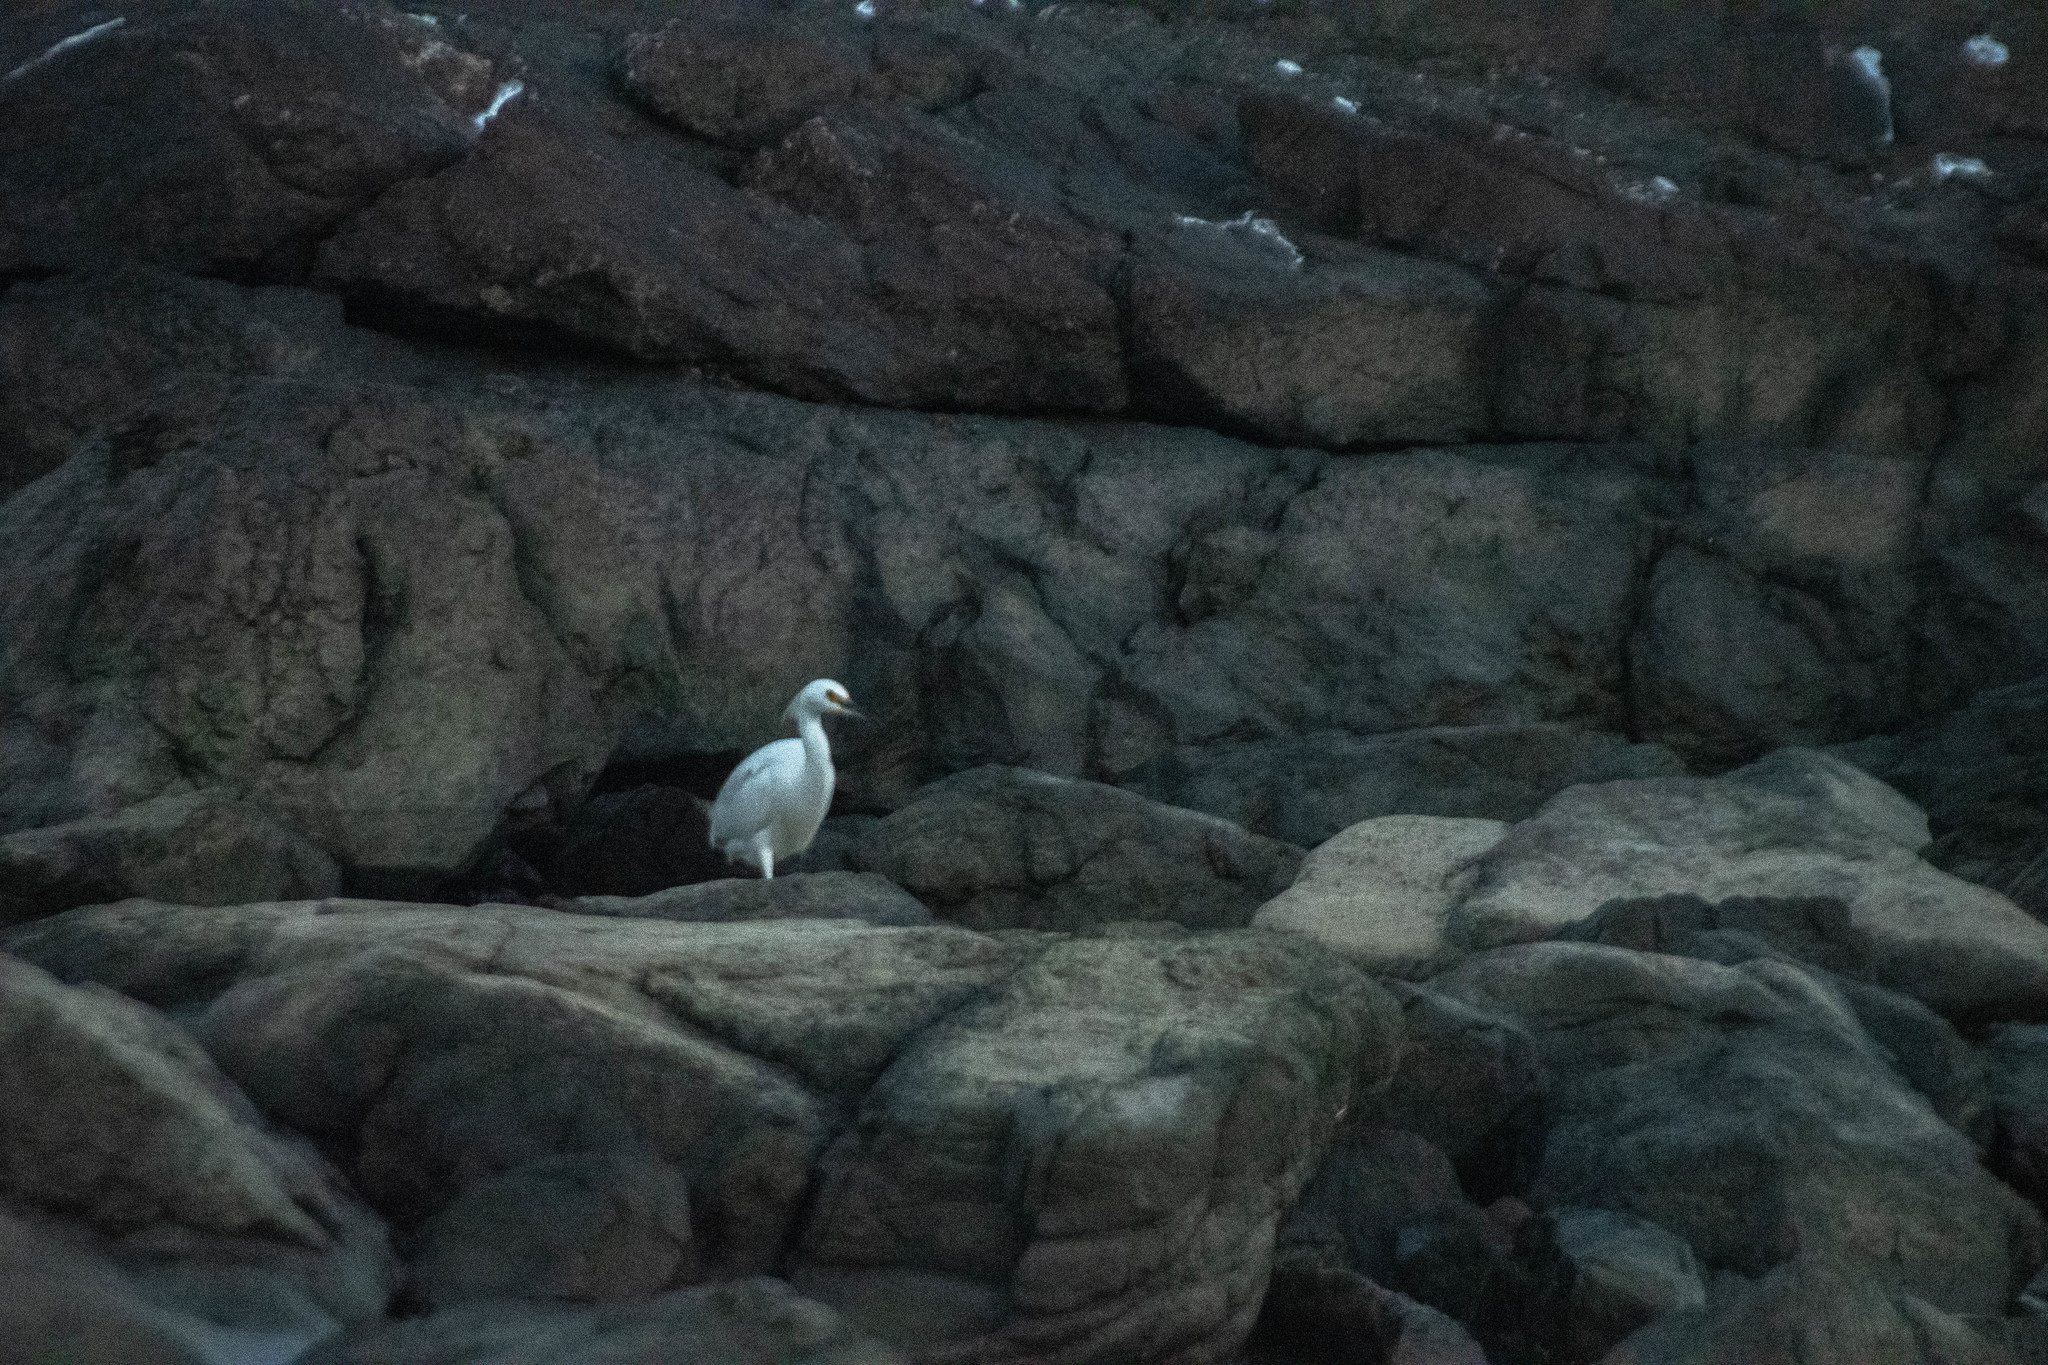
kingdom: Animalia
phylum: Chordata
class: Aves
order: Pelecaniformes
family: Ardeidae
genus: Egretta
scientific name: Egretta thula
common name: Snowy egret
